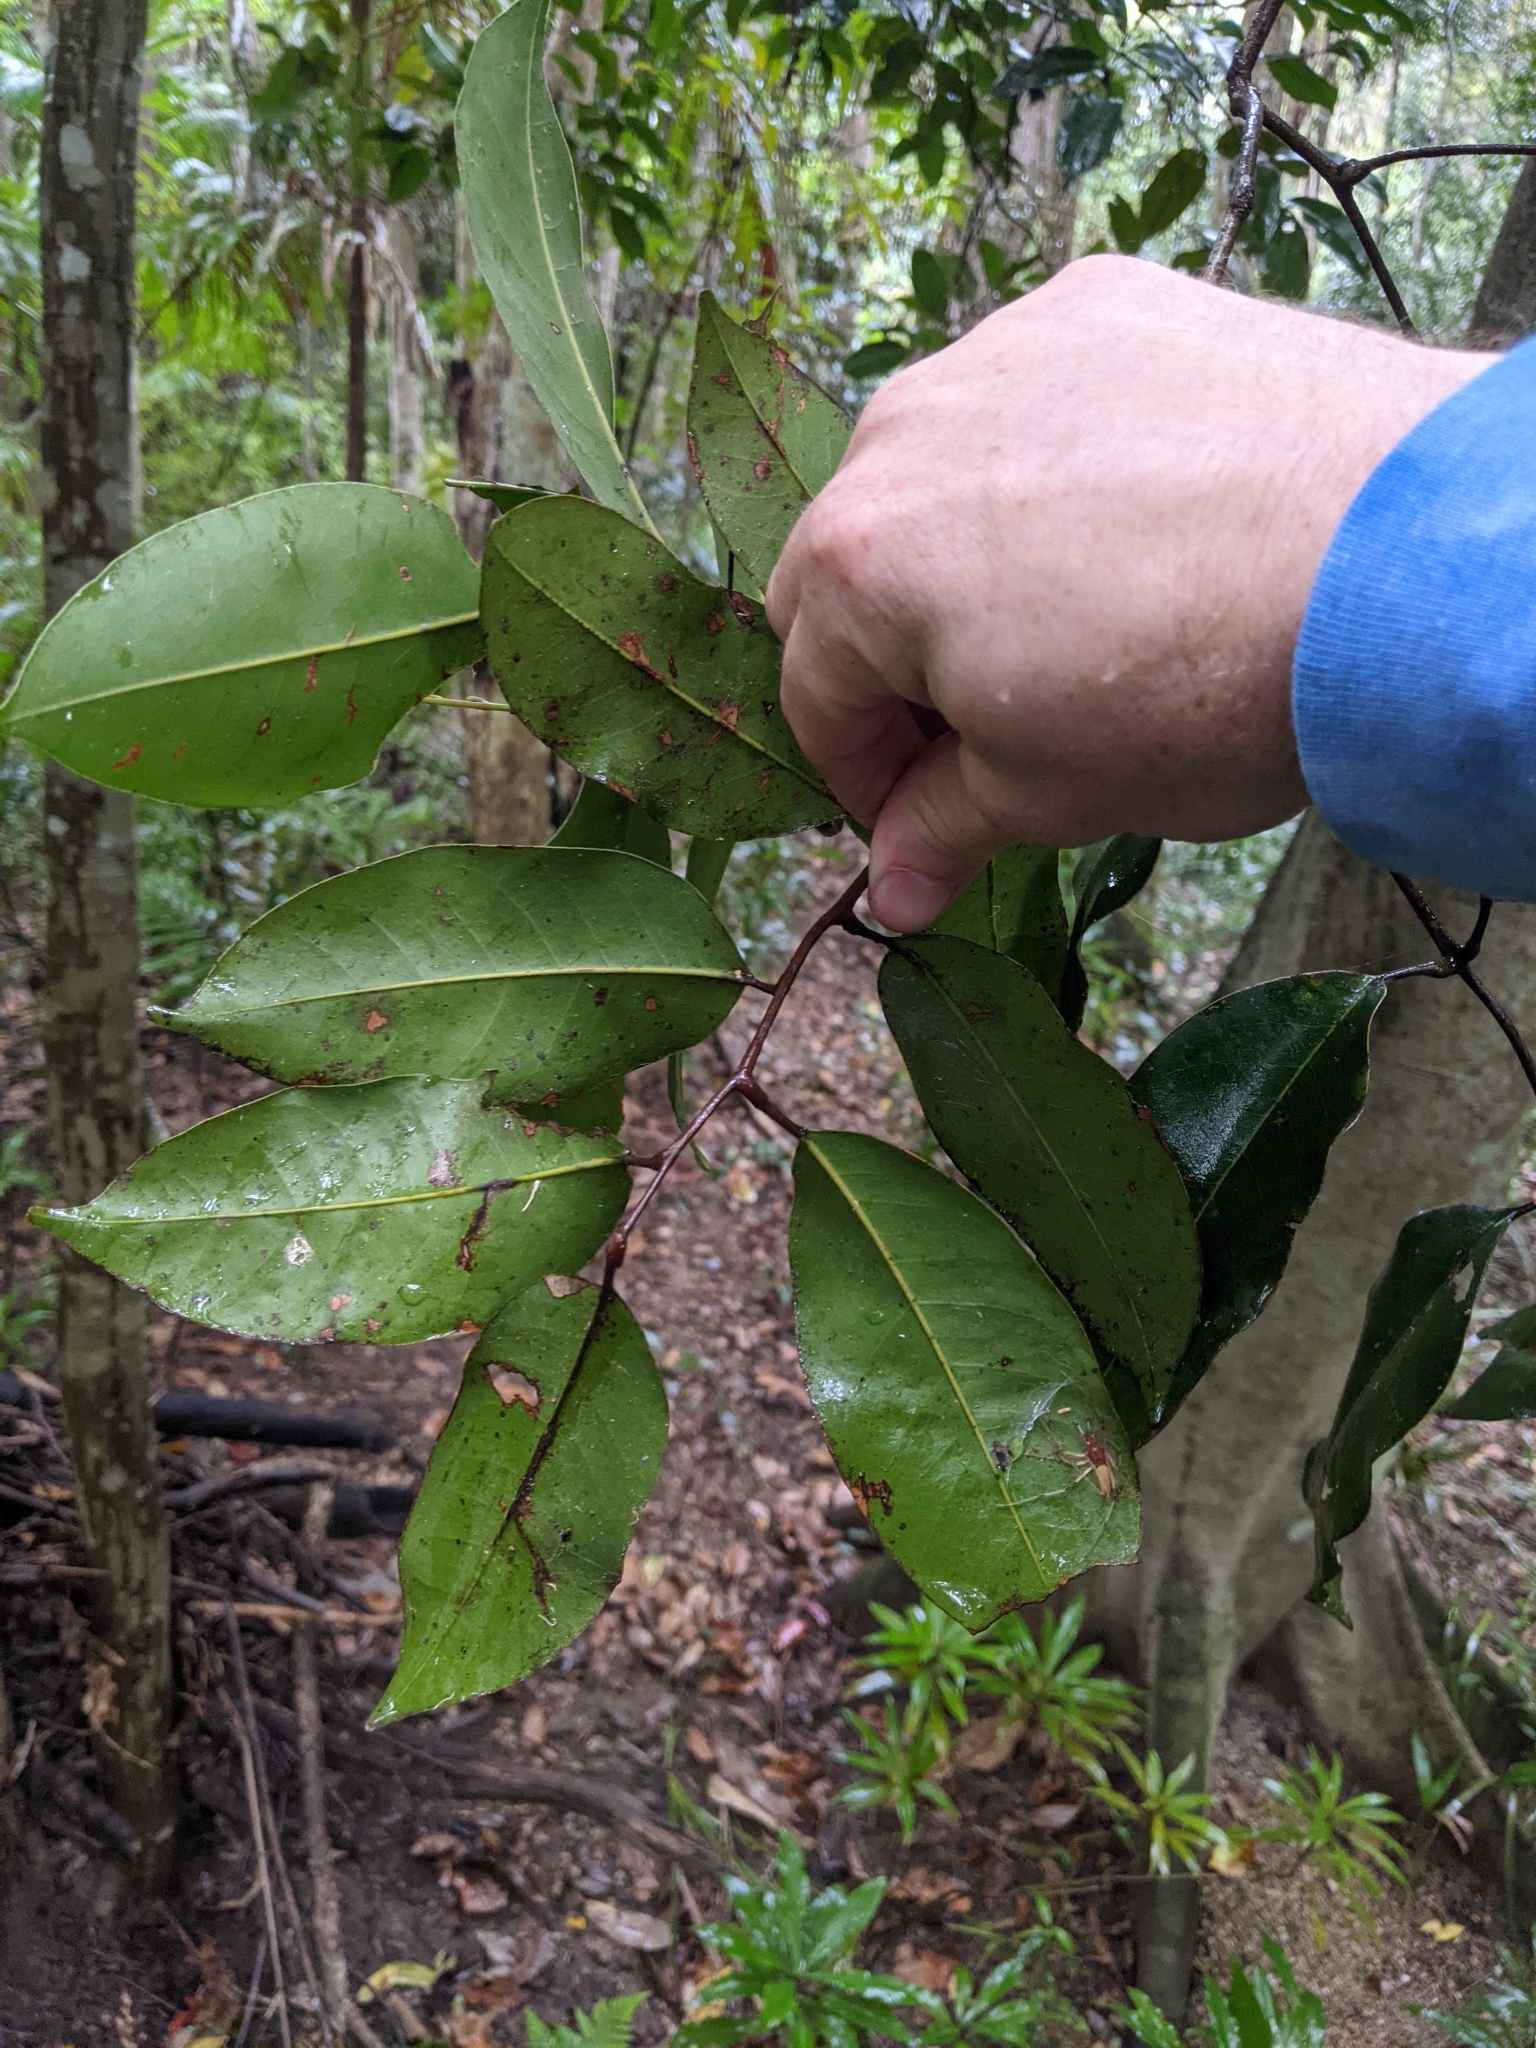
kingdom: Plantae
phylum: Tracheophyta
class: Magnoliopsida
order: Sapindales
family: Sapindaceae
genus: Mischocarpus
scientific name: Mischocarpus pyriformis
